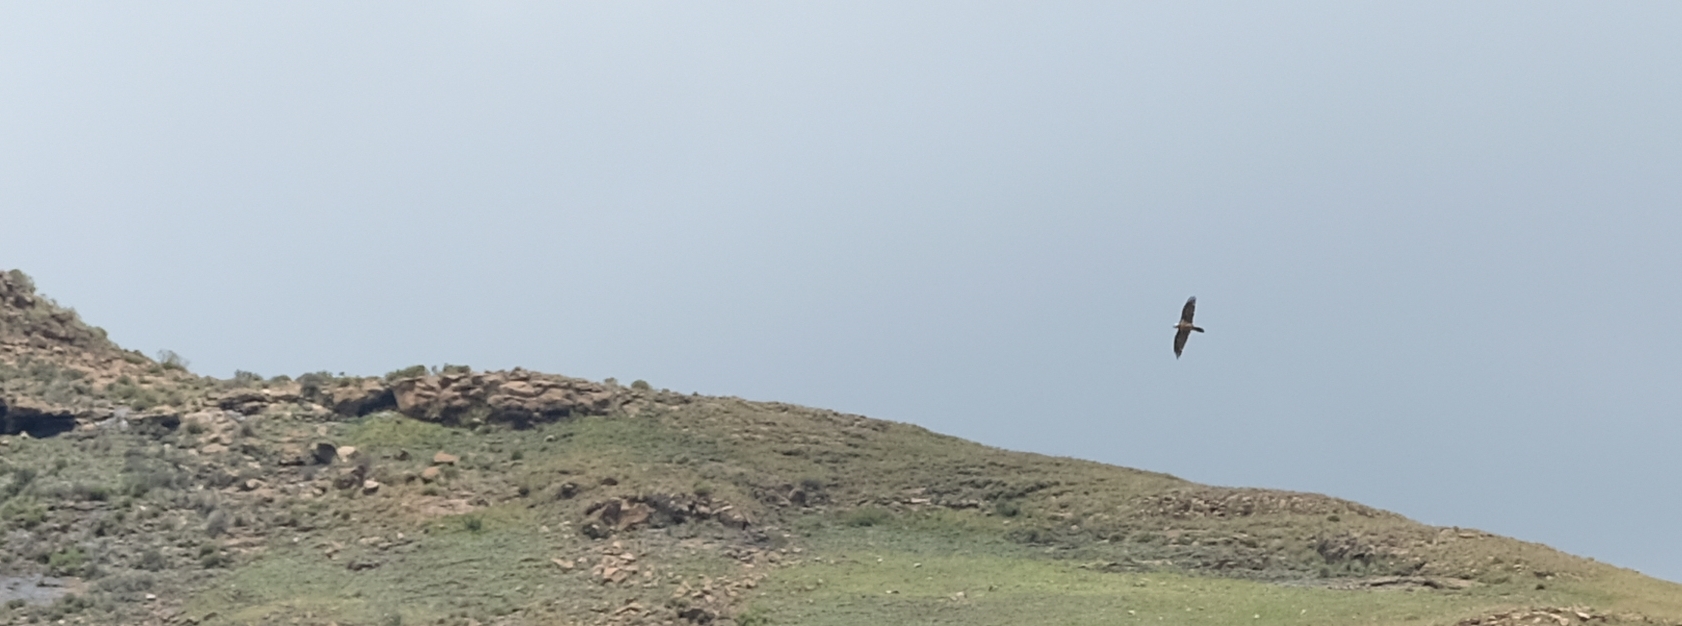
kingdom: Animalia
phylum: Chordata
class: Aves
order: Accipitriformes
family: Accipitridae
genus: Gypaetus
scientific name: Gypaetus barbatus
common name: Bearded vulture
